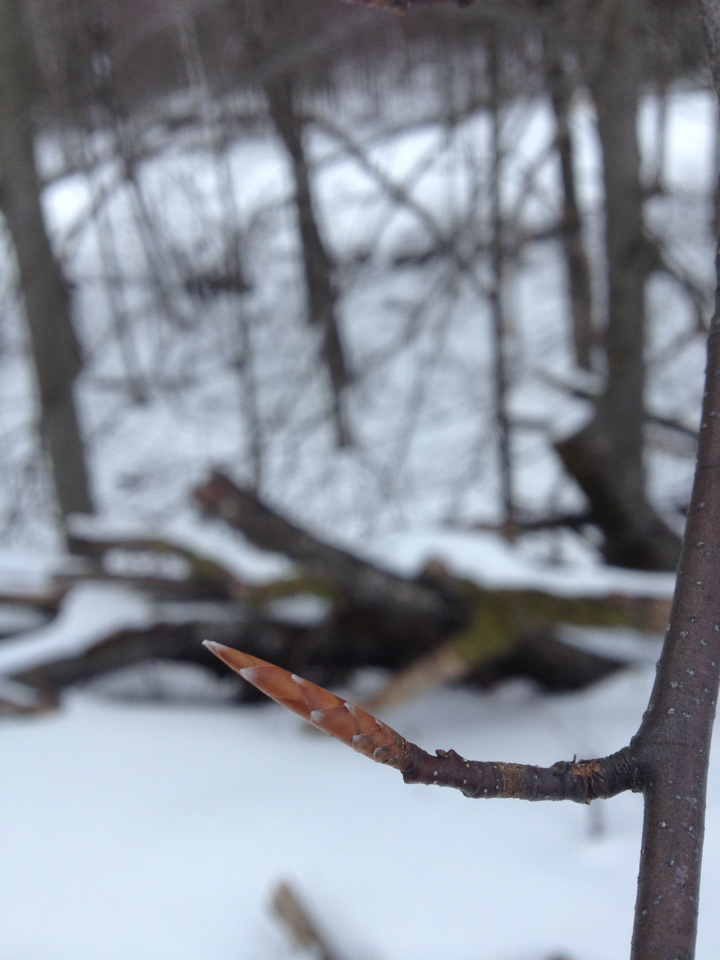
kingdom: Plantae
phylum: Tracheophyta
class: Magnoliopsida
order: Fagales
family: Fagaceae
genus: Fagus
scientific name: Fagus grandifolia
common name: American beech
